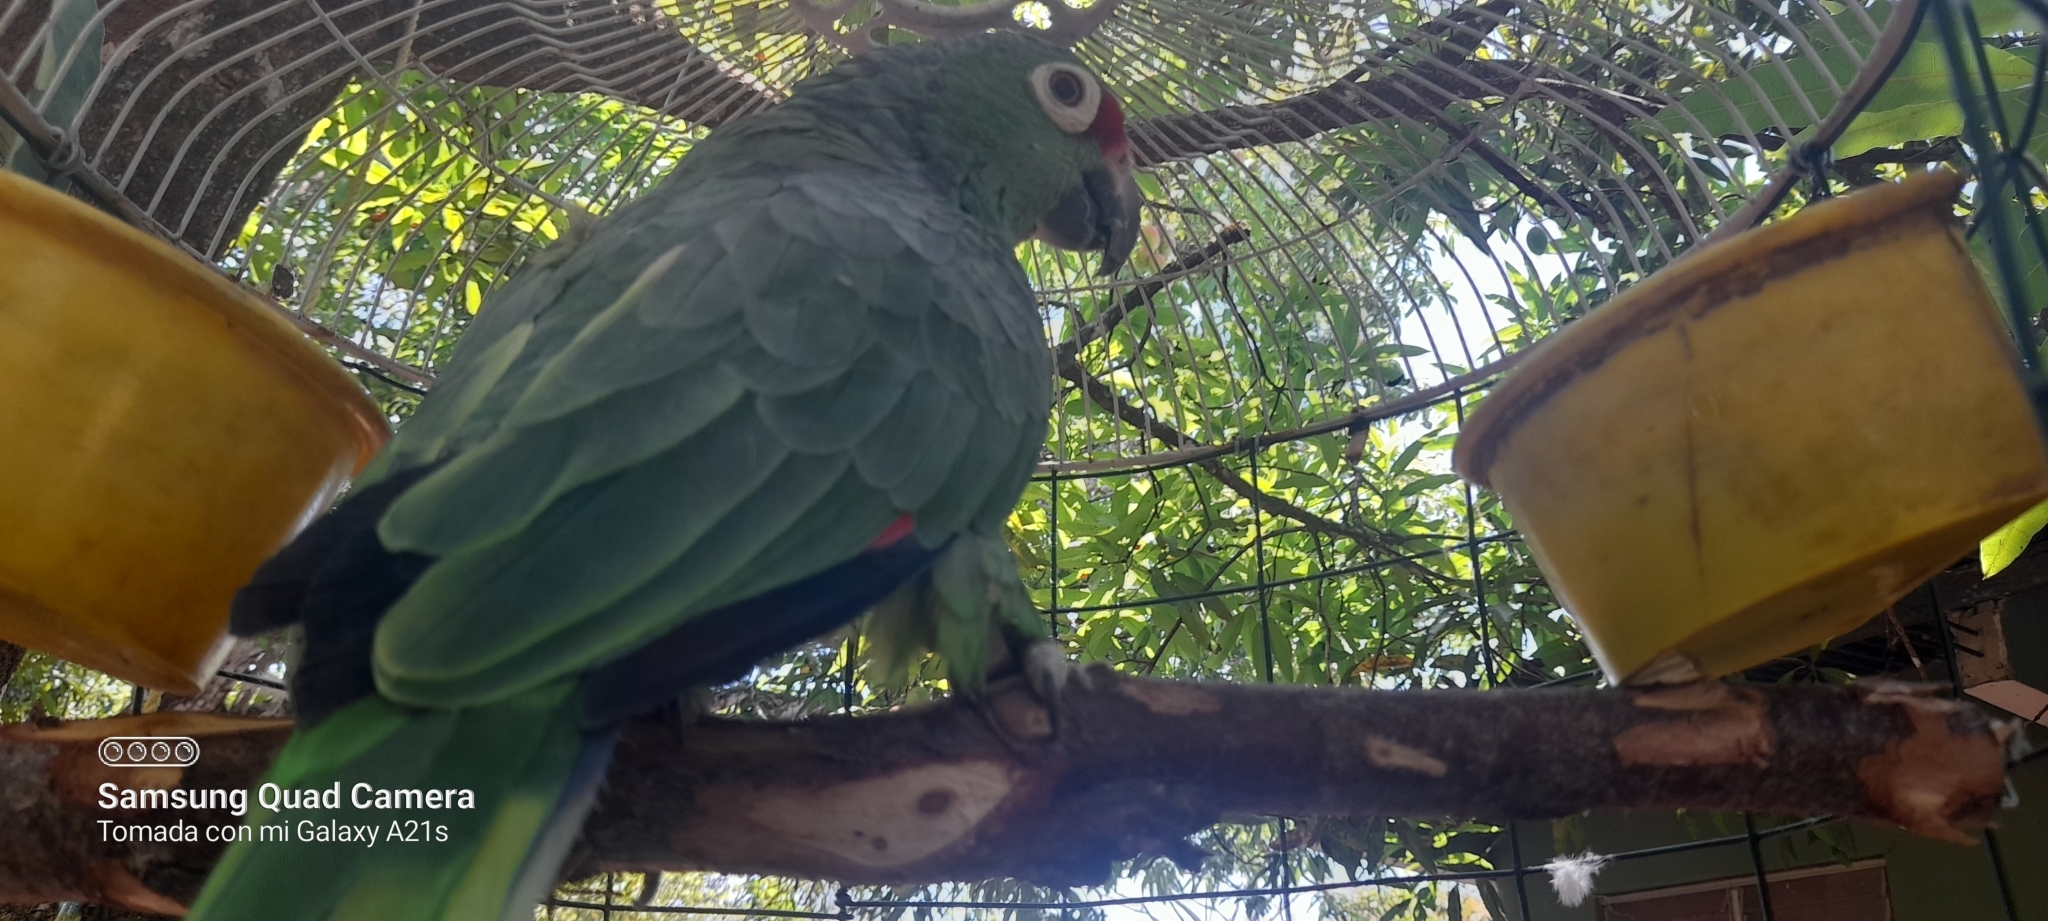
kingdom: Animalia
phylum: Chordata
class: Aves
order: Psittaciformes
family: Psittacidae
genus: Amazona
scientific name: Amazona autumnalis
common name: Red-lored amazon
